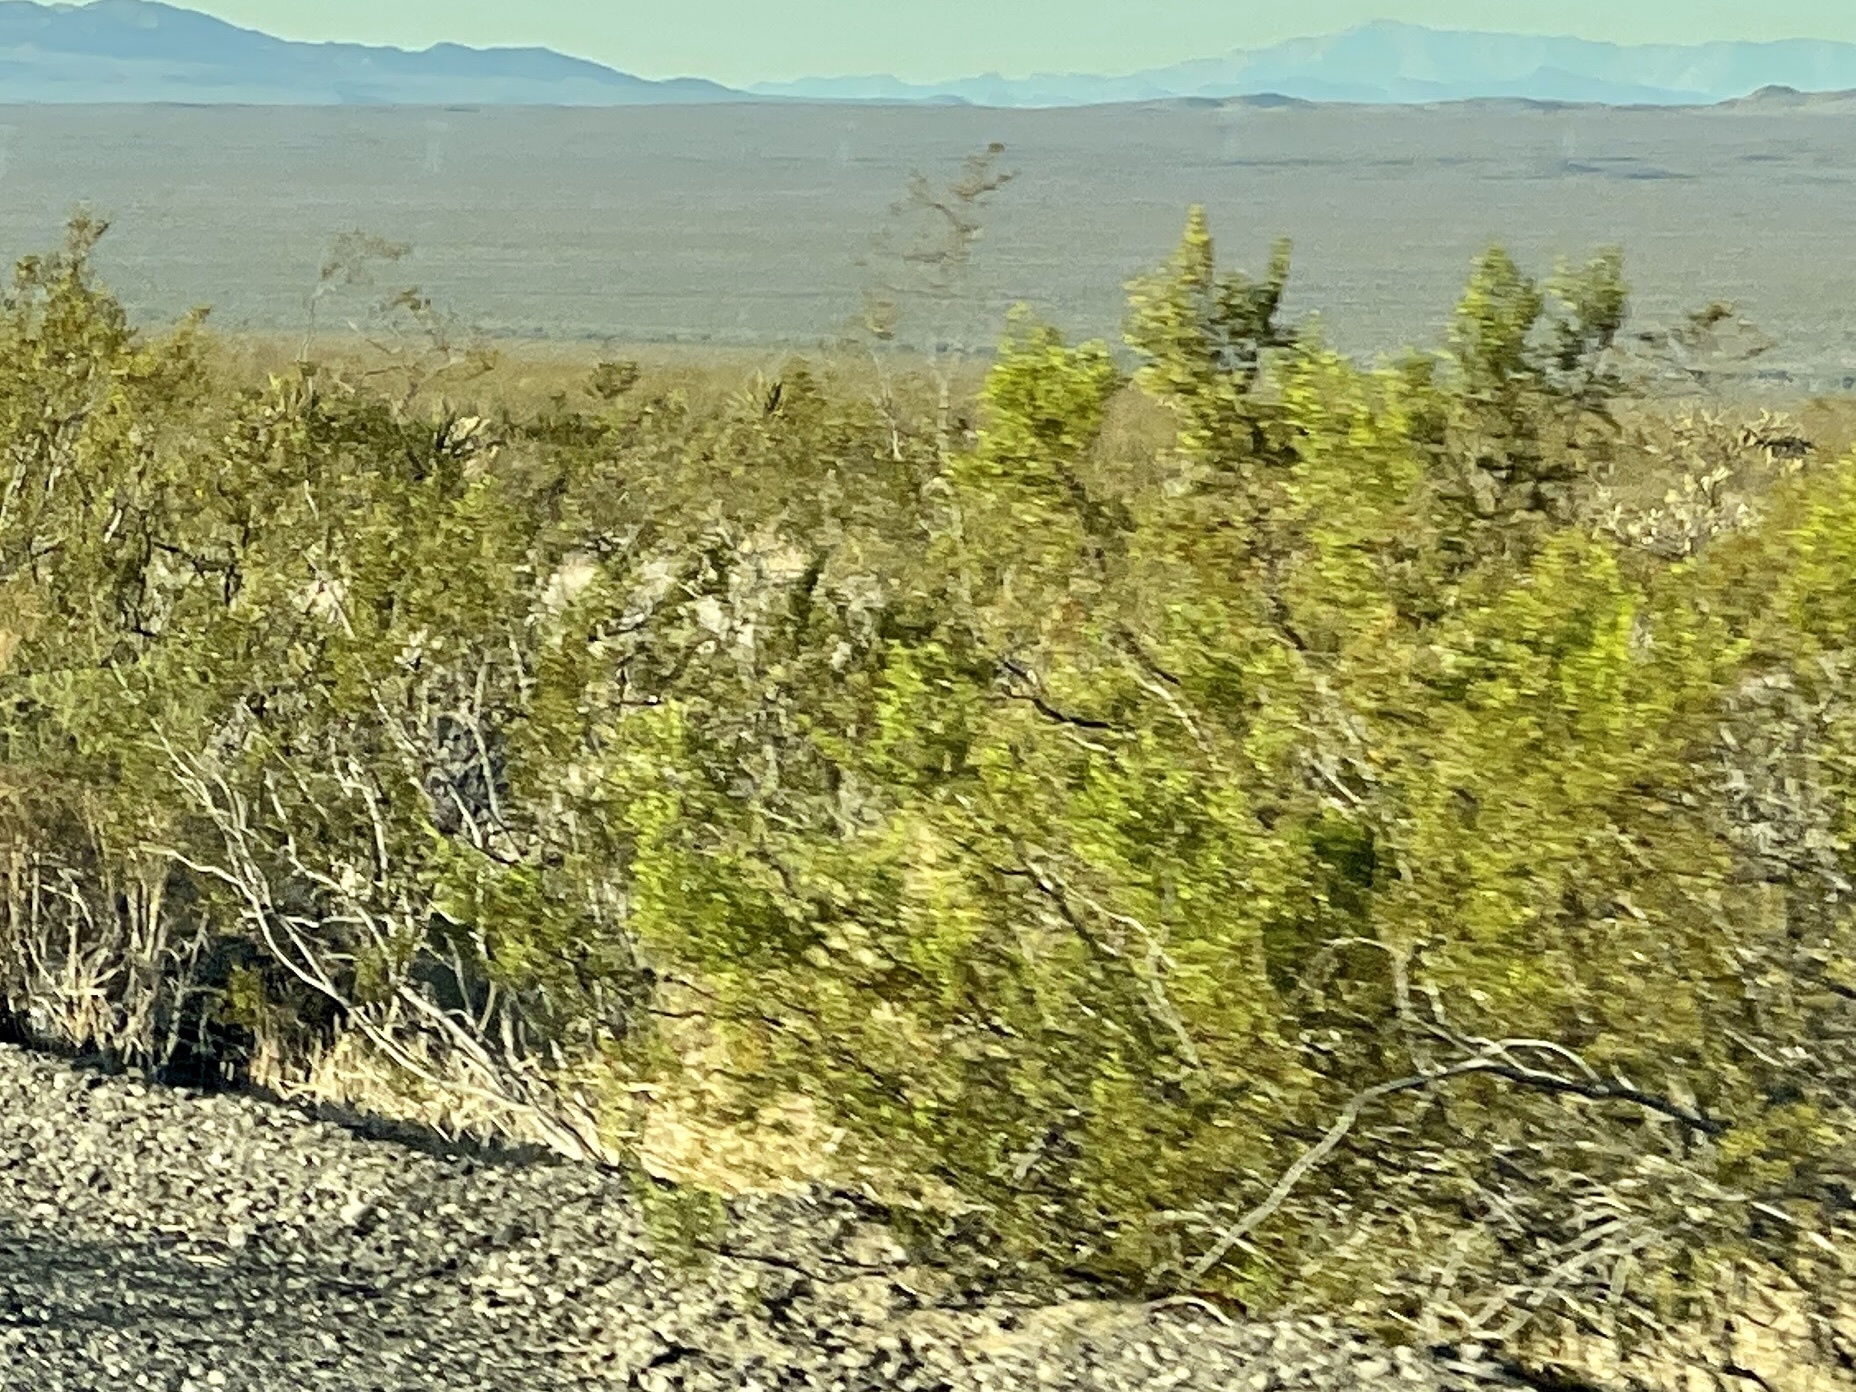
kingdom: Plantae
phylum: Tracheophyta
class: Magnoliopsida
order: Zygophyllales
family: Zygophyllaceae
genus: Larrea
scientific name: Larrea tridentata
